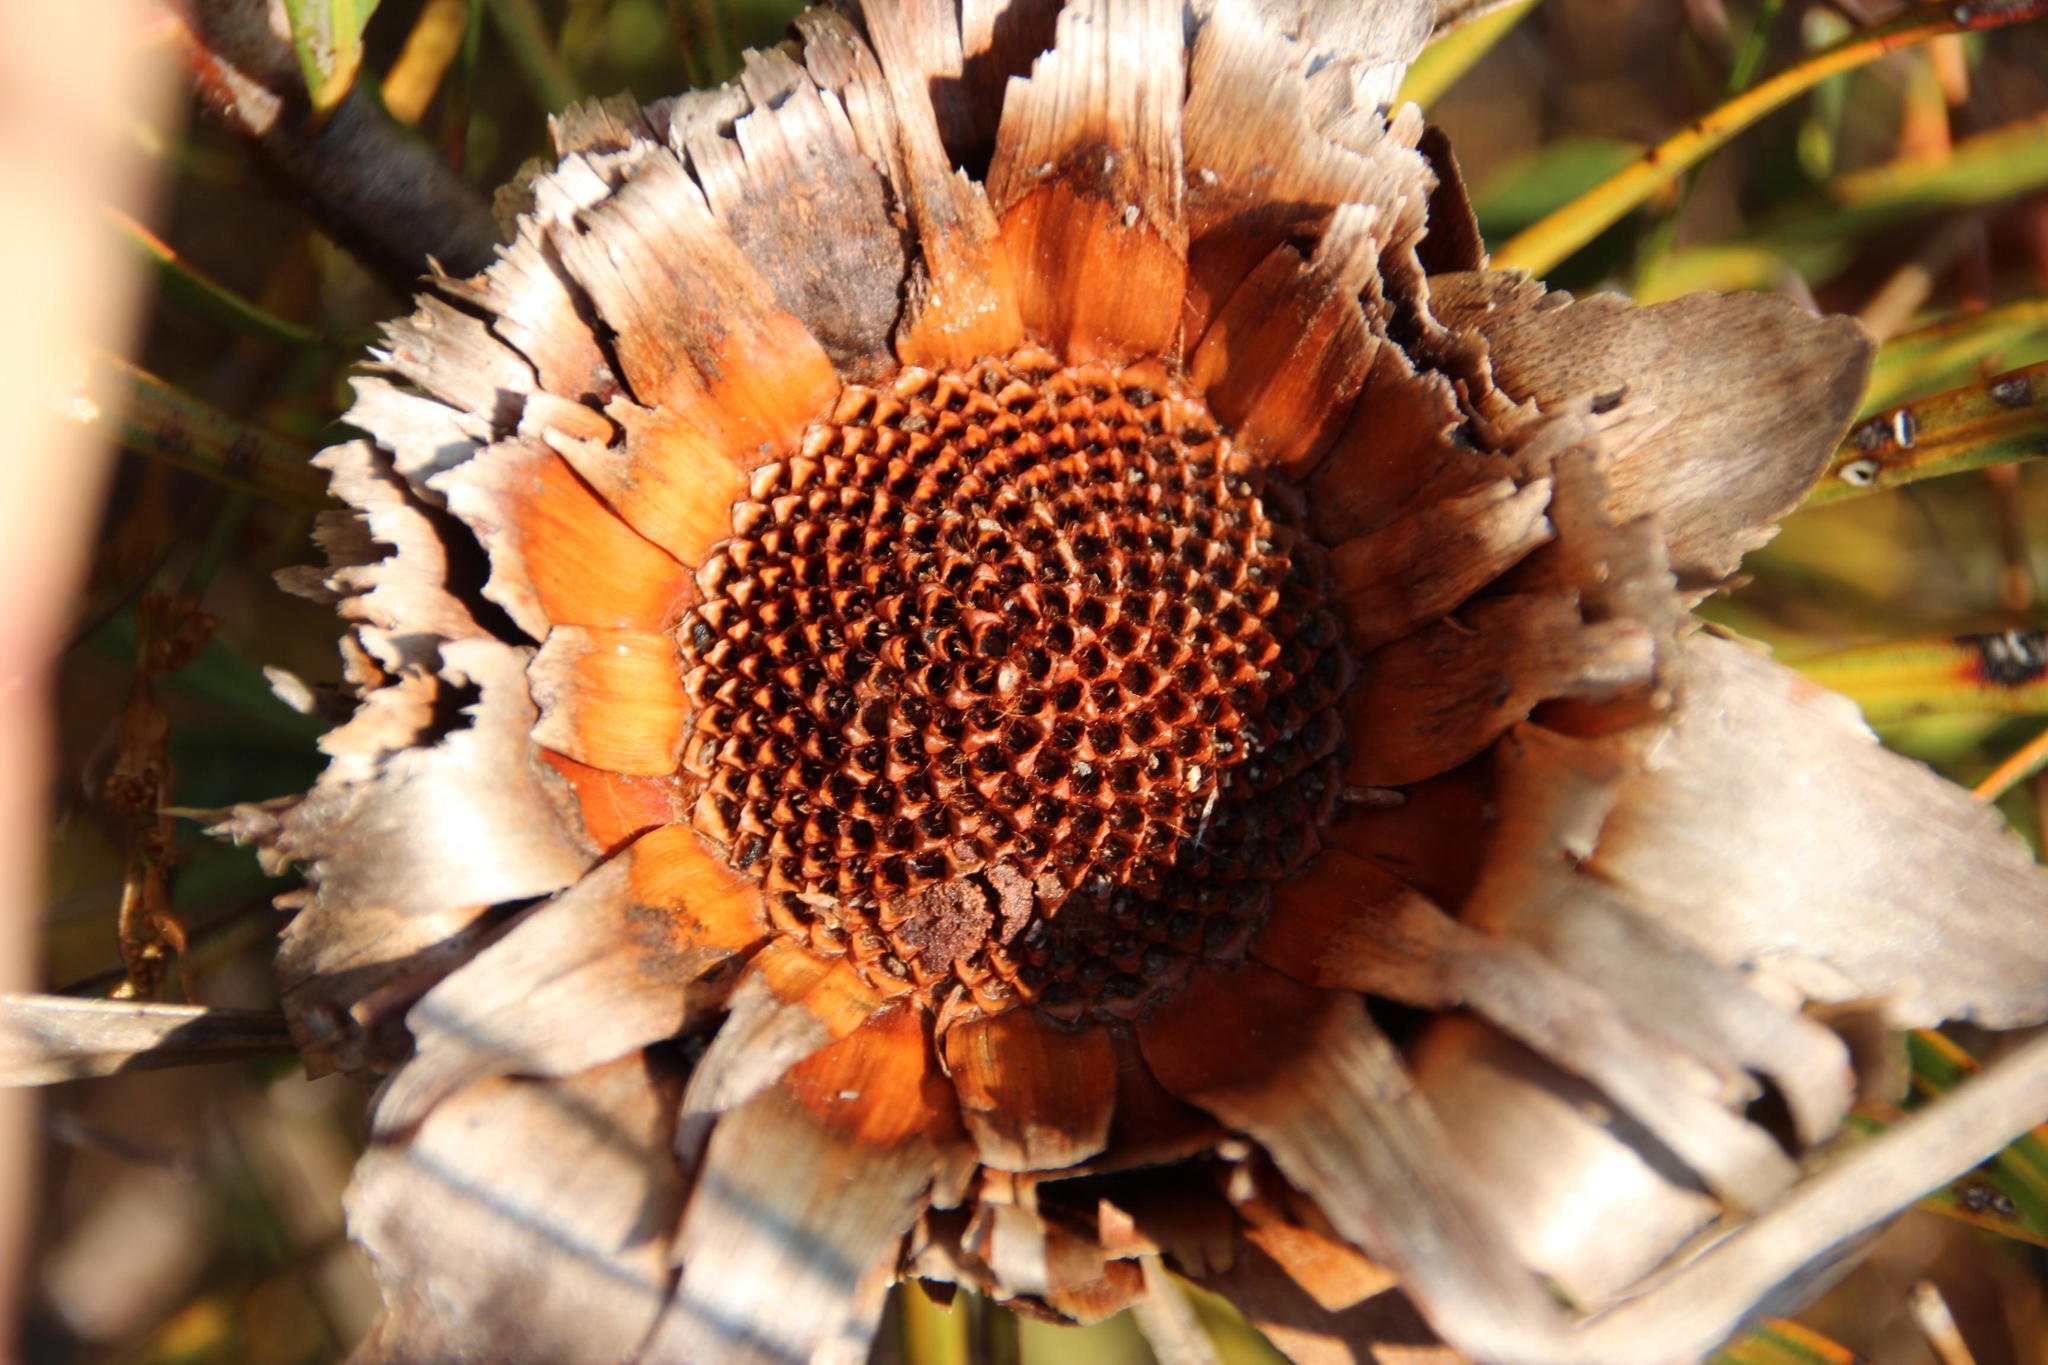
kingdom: Plantae
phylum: Tracheophyta
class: Magnoliopsida
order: Proteales
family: Proteaceae
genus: Protea
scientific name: Protea longifolia
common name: Long-leaf sugarbush
